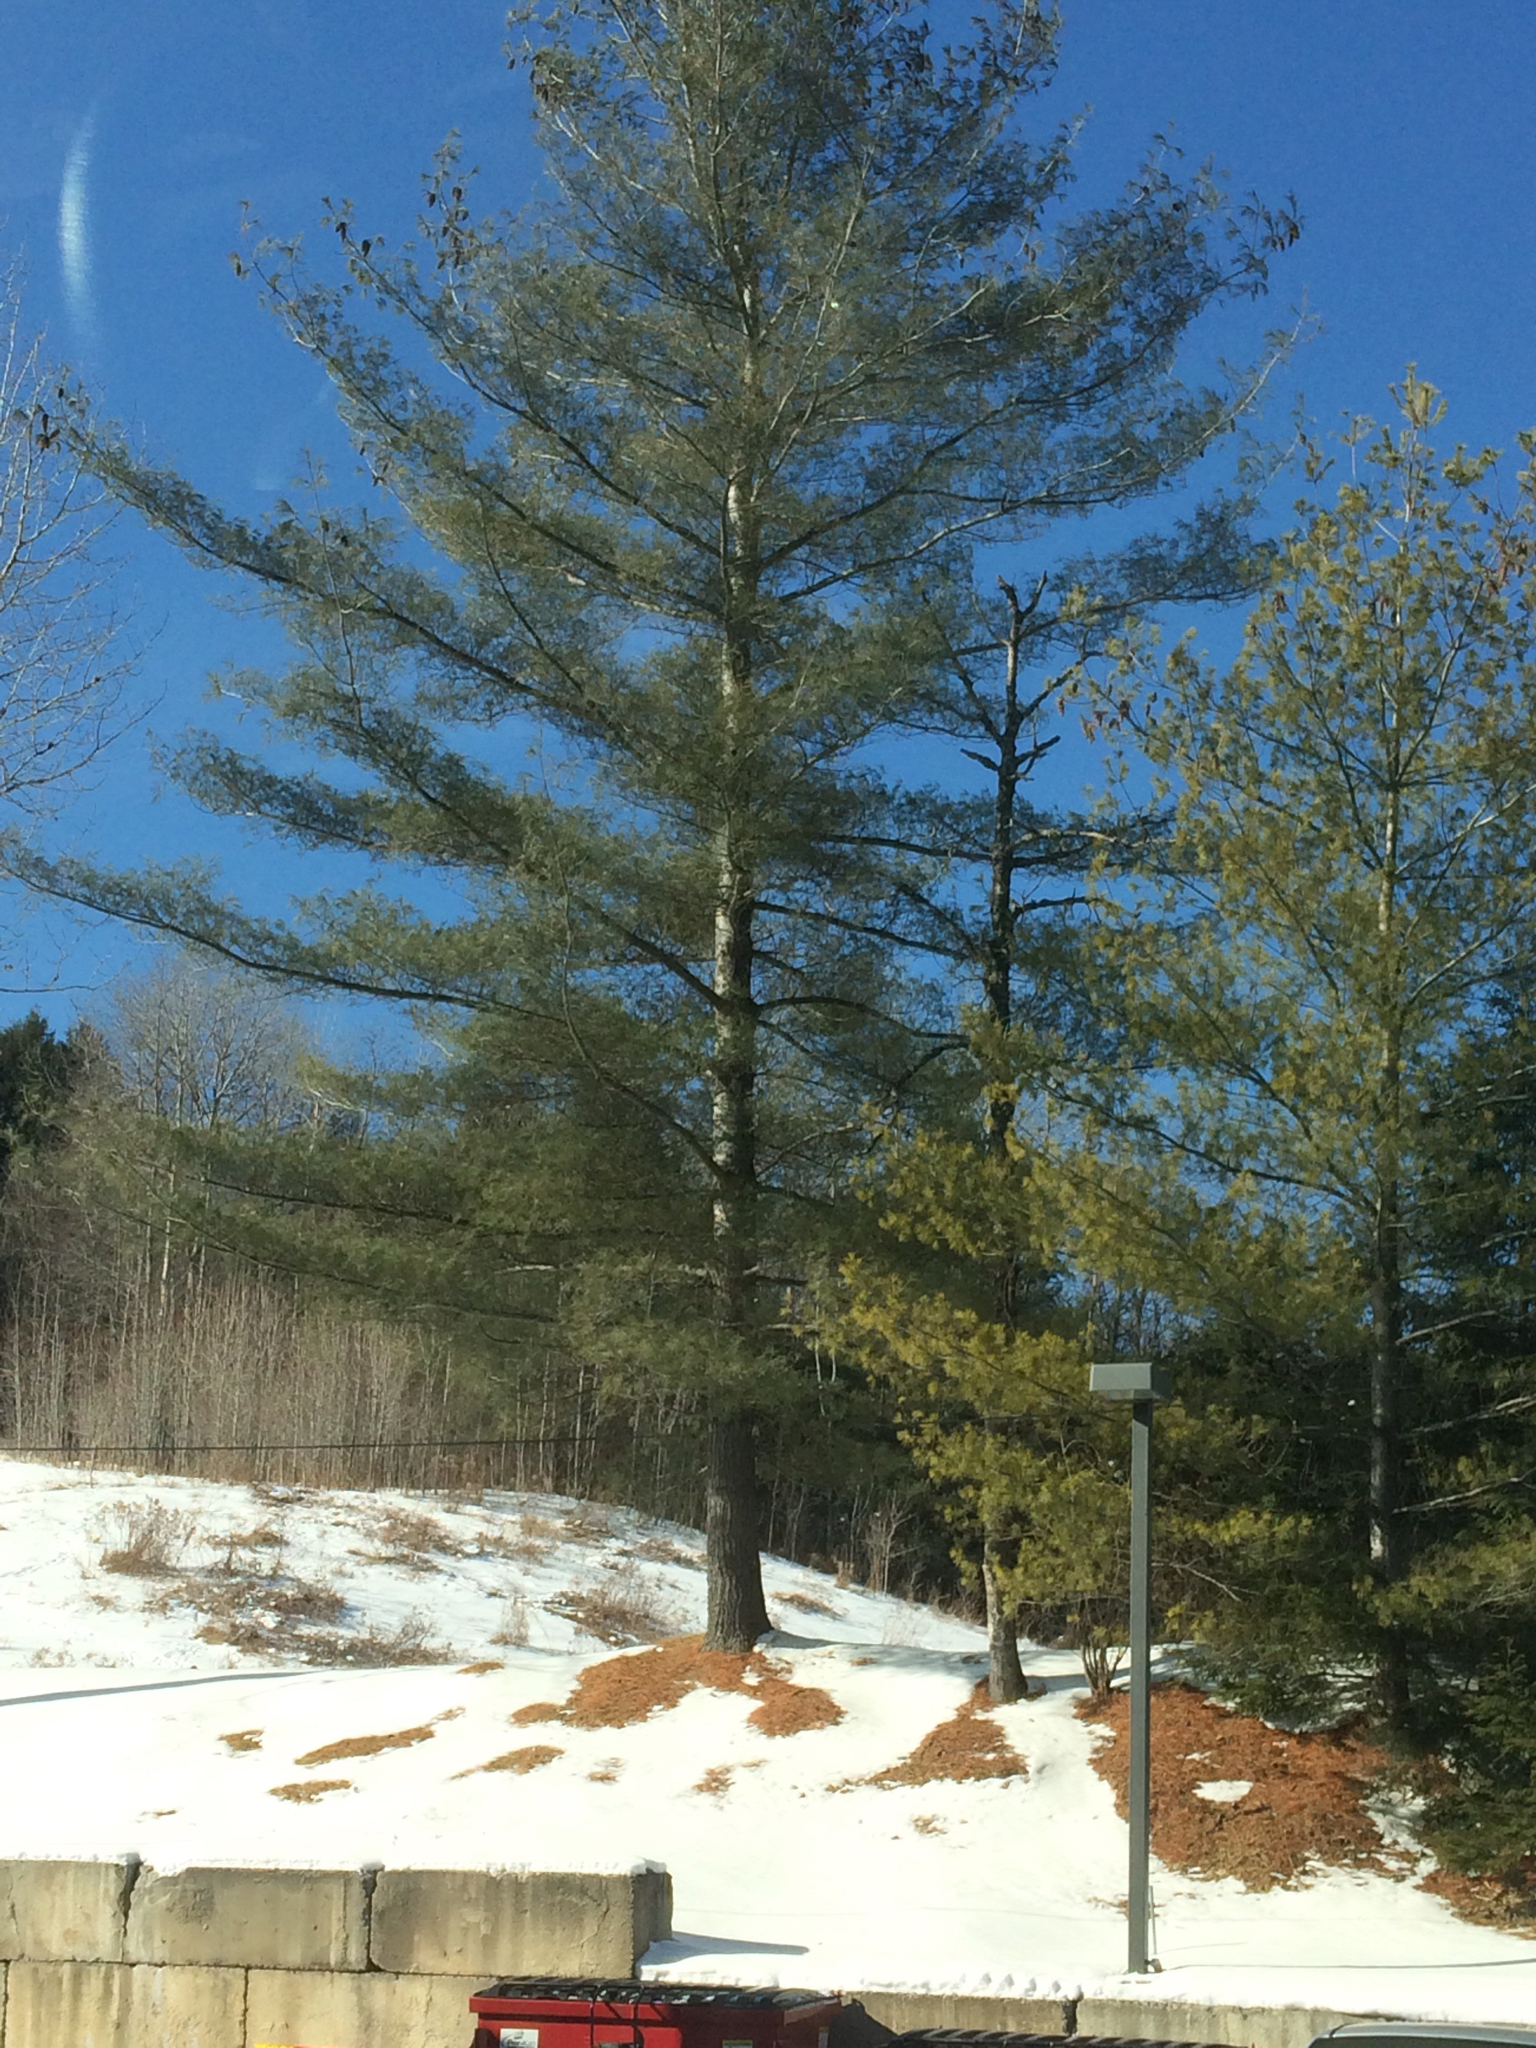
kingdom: Plantae
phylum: Tracheophyta
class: Pinopsida
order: Pinales
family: Pinaceae
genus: Pinus
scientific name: Pinus strobus
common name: Weymouth pine
